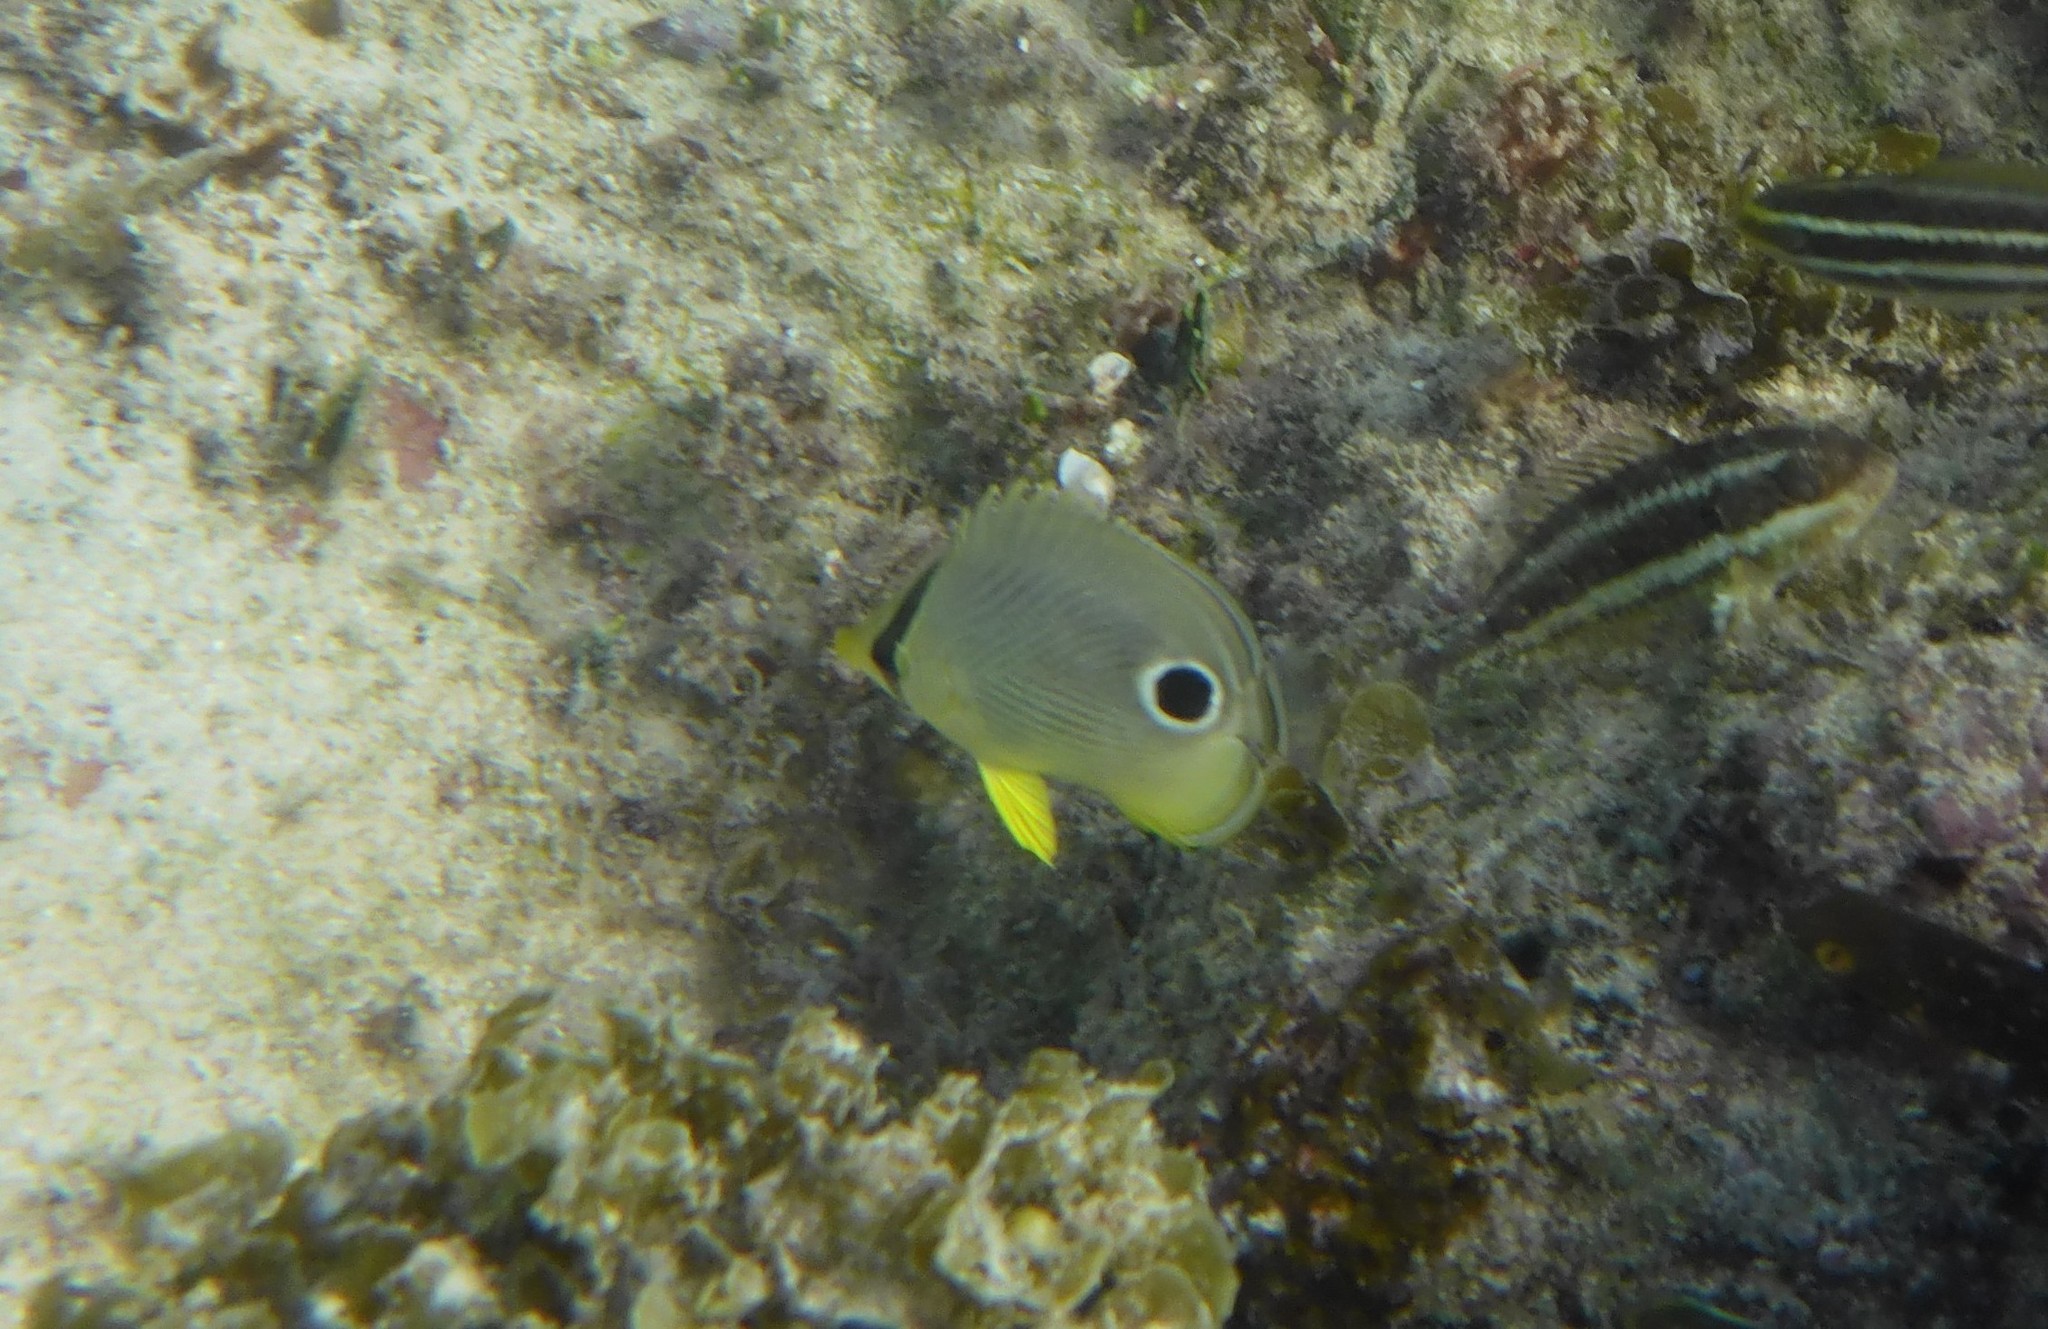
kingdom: Animalia
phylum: Chordata
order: Perciformes
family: Chaetodontidae
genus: Chaetodon
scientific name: Chaetodon capistratus
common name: Kete
